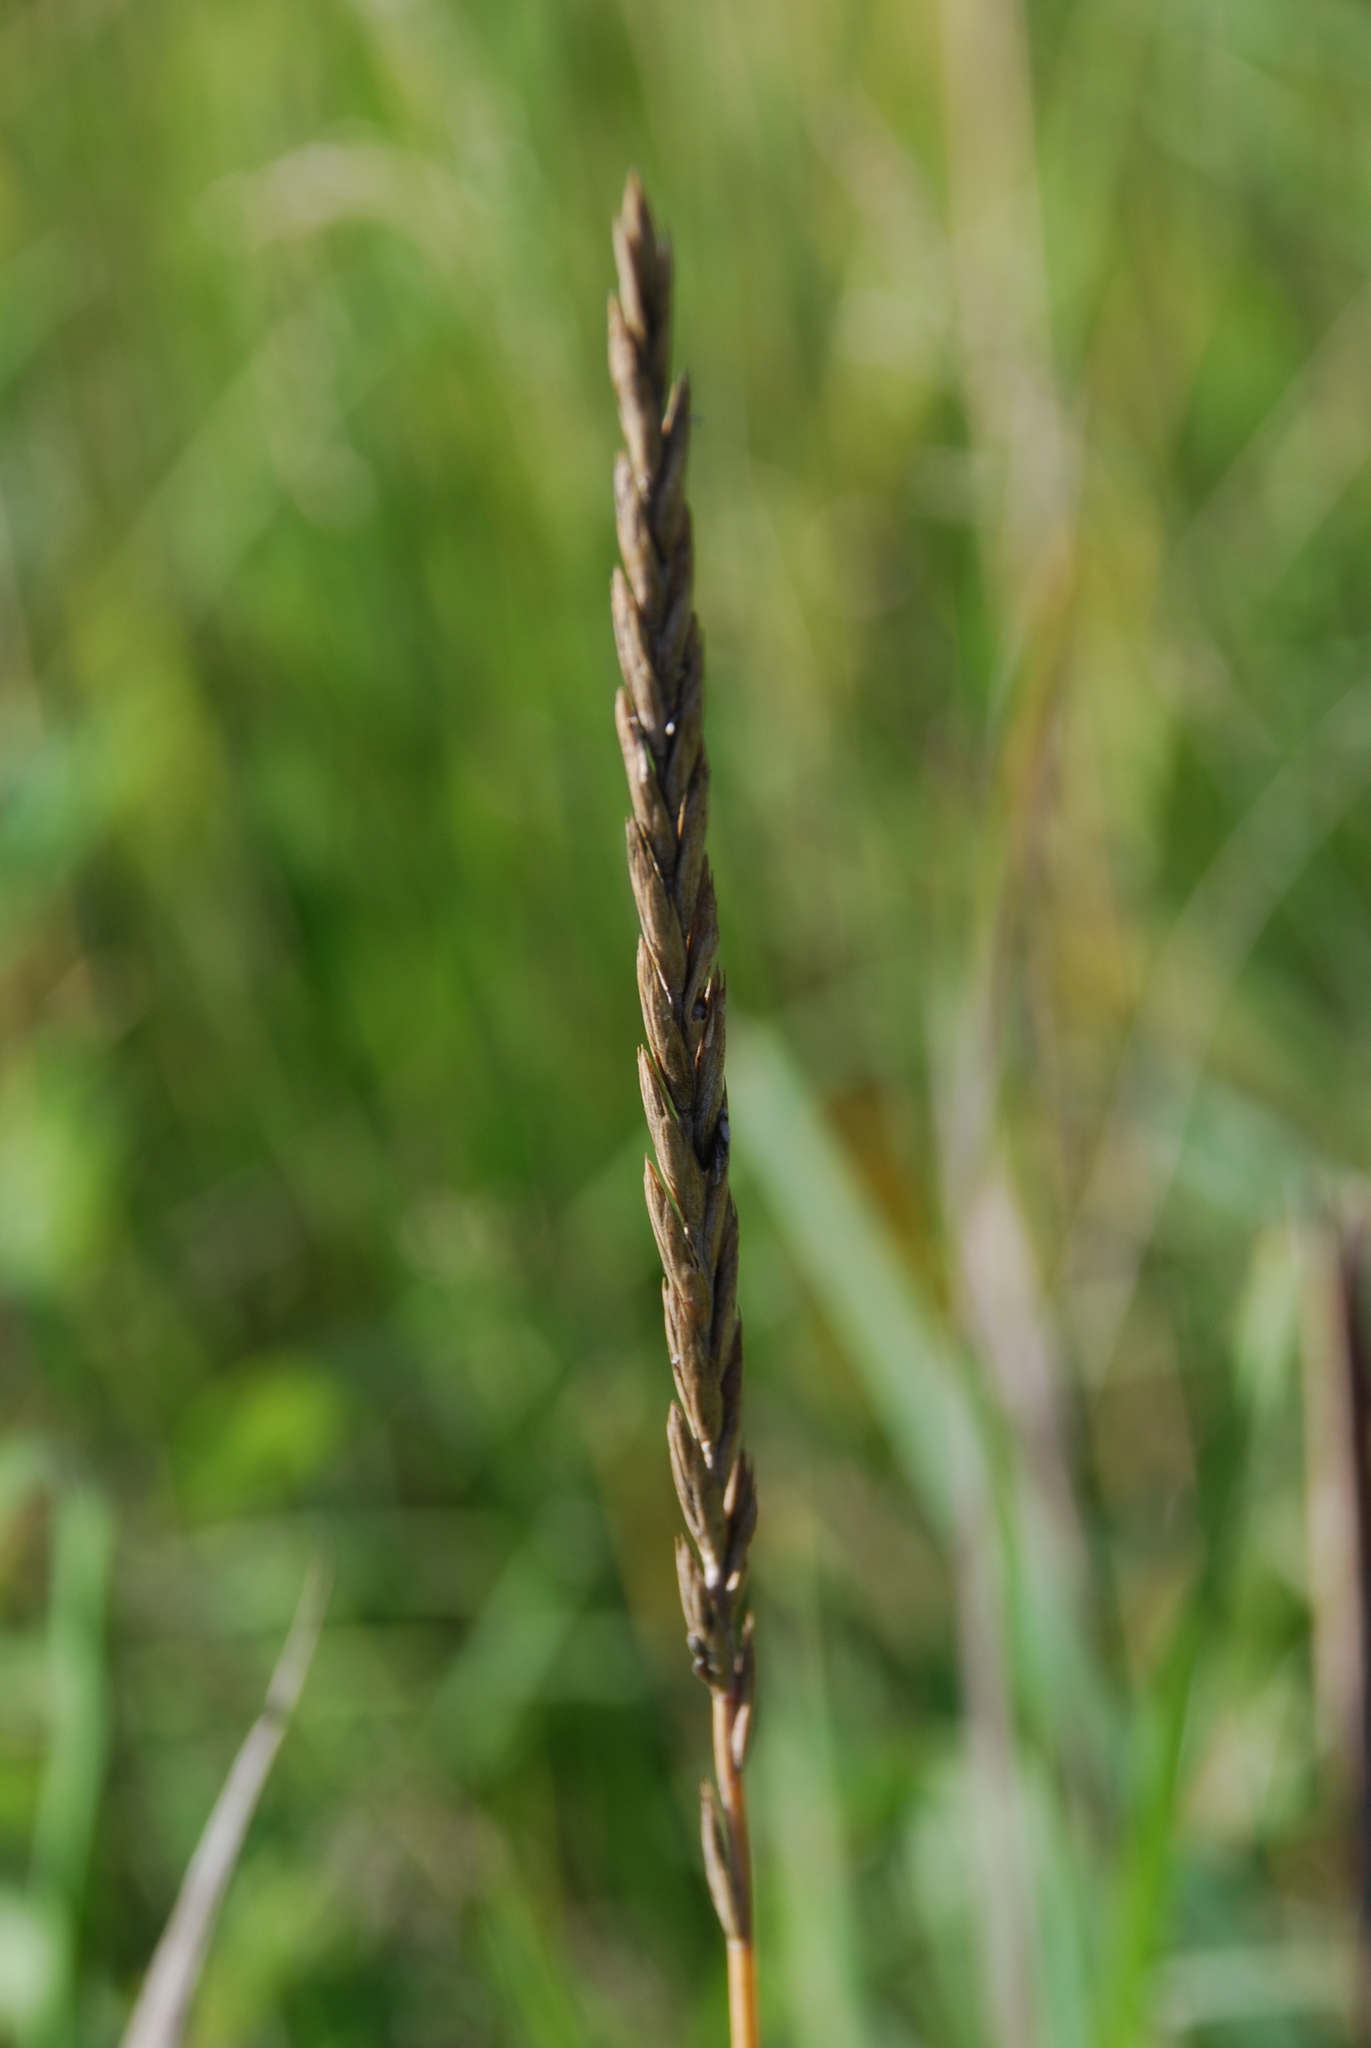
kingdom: Plantae
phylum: Tracheophyta
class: Liliopsida
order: Poales
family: Poaceae
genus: Elymus
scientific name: Elymus repens
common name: Quackgrass
